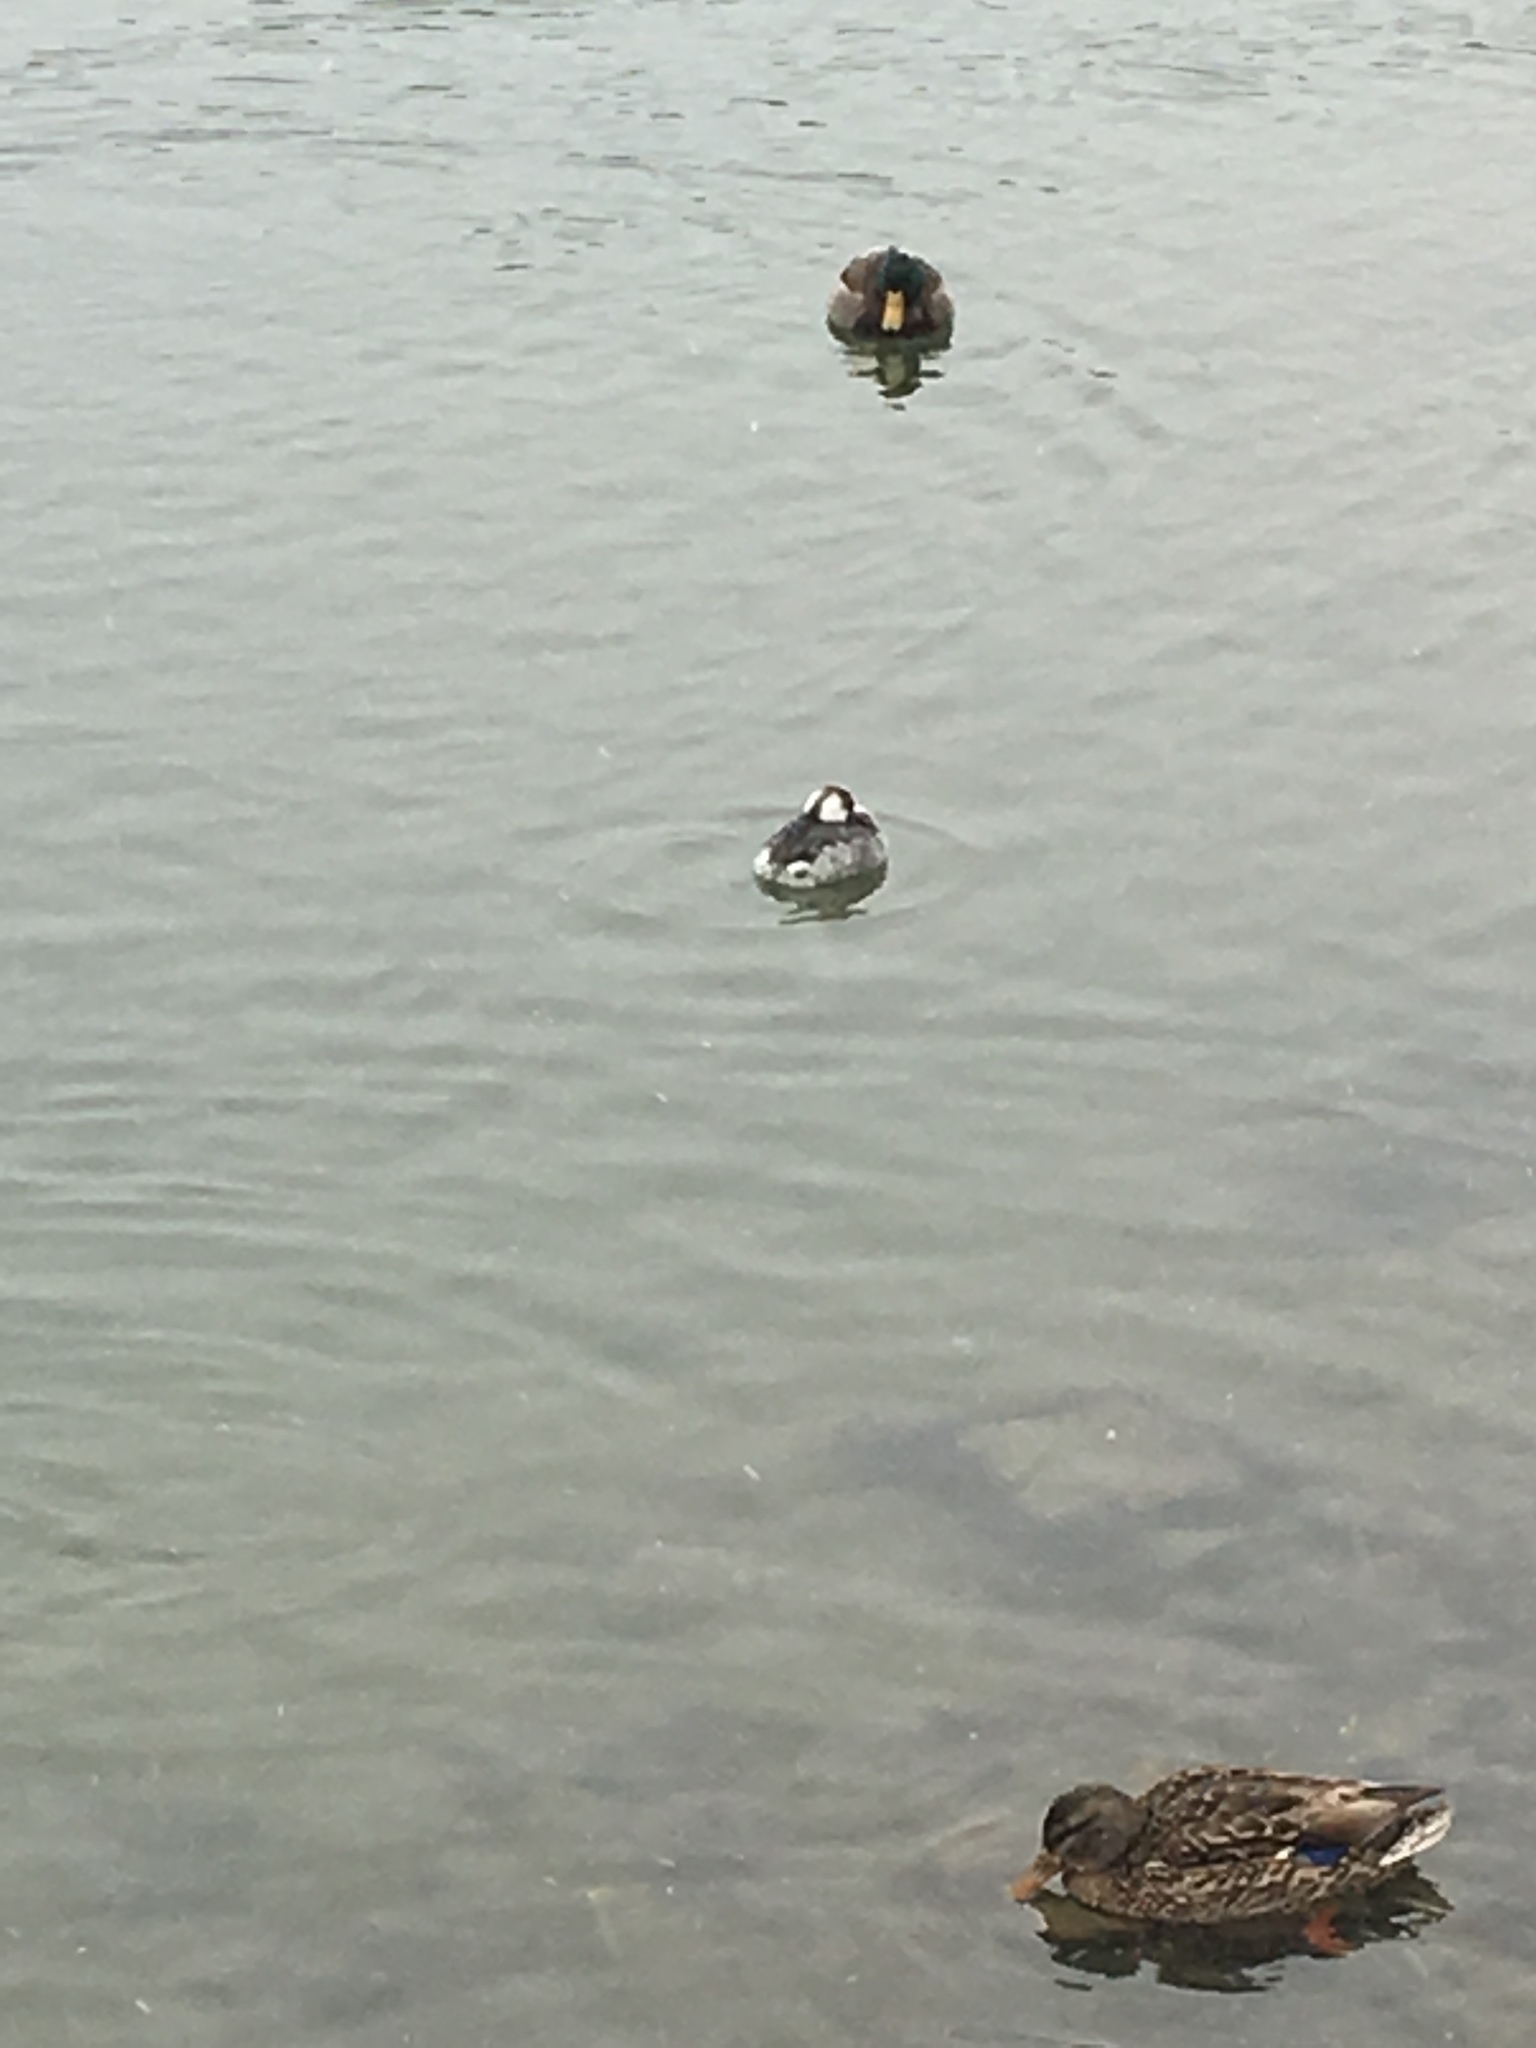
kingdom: Animalia
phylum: Chordata
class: Aves
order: Podicipediformes
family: Podicipedidae
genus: Podiceps
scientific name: Podiceps auritus
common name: Horned grebe
